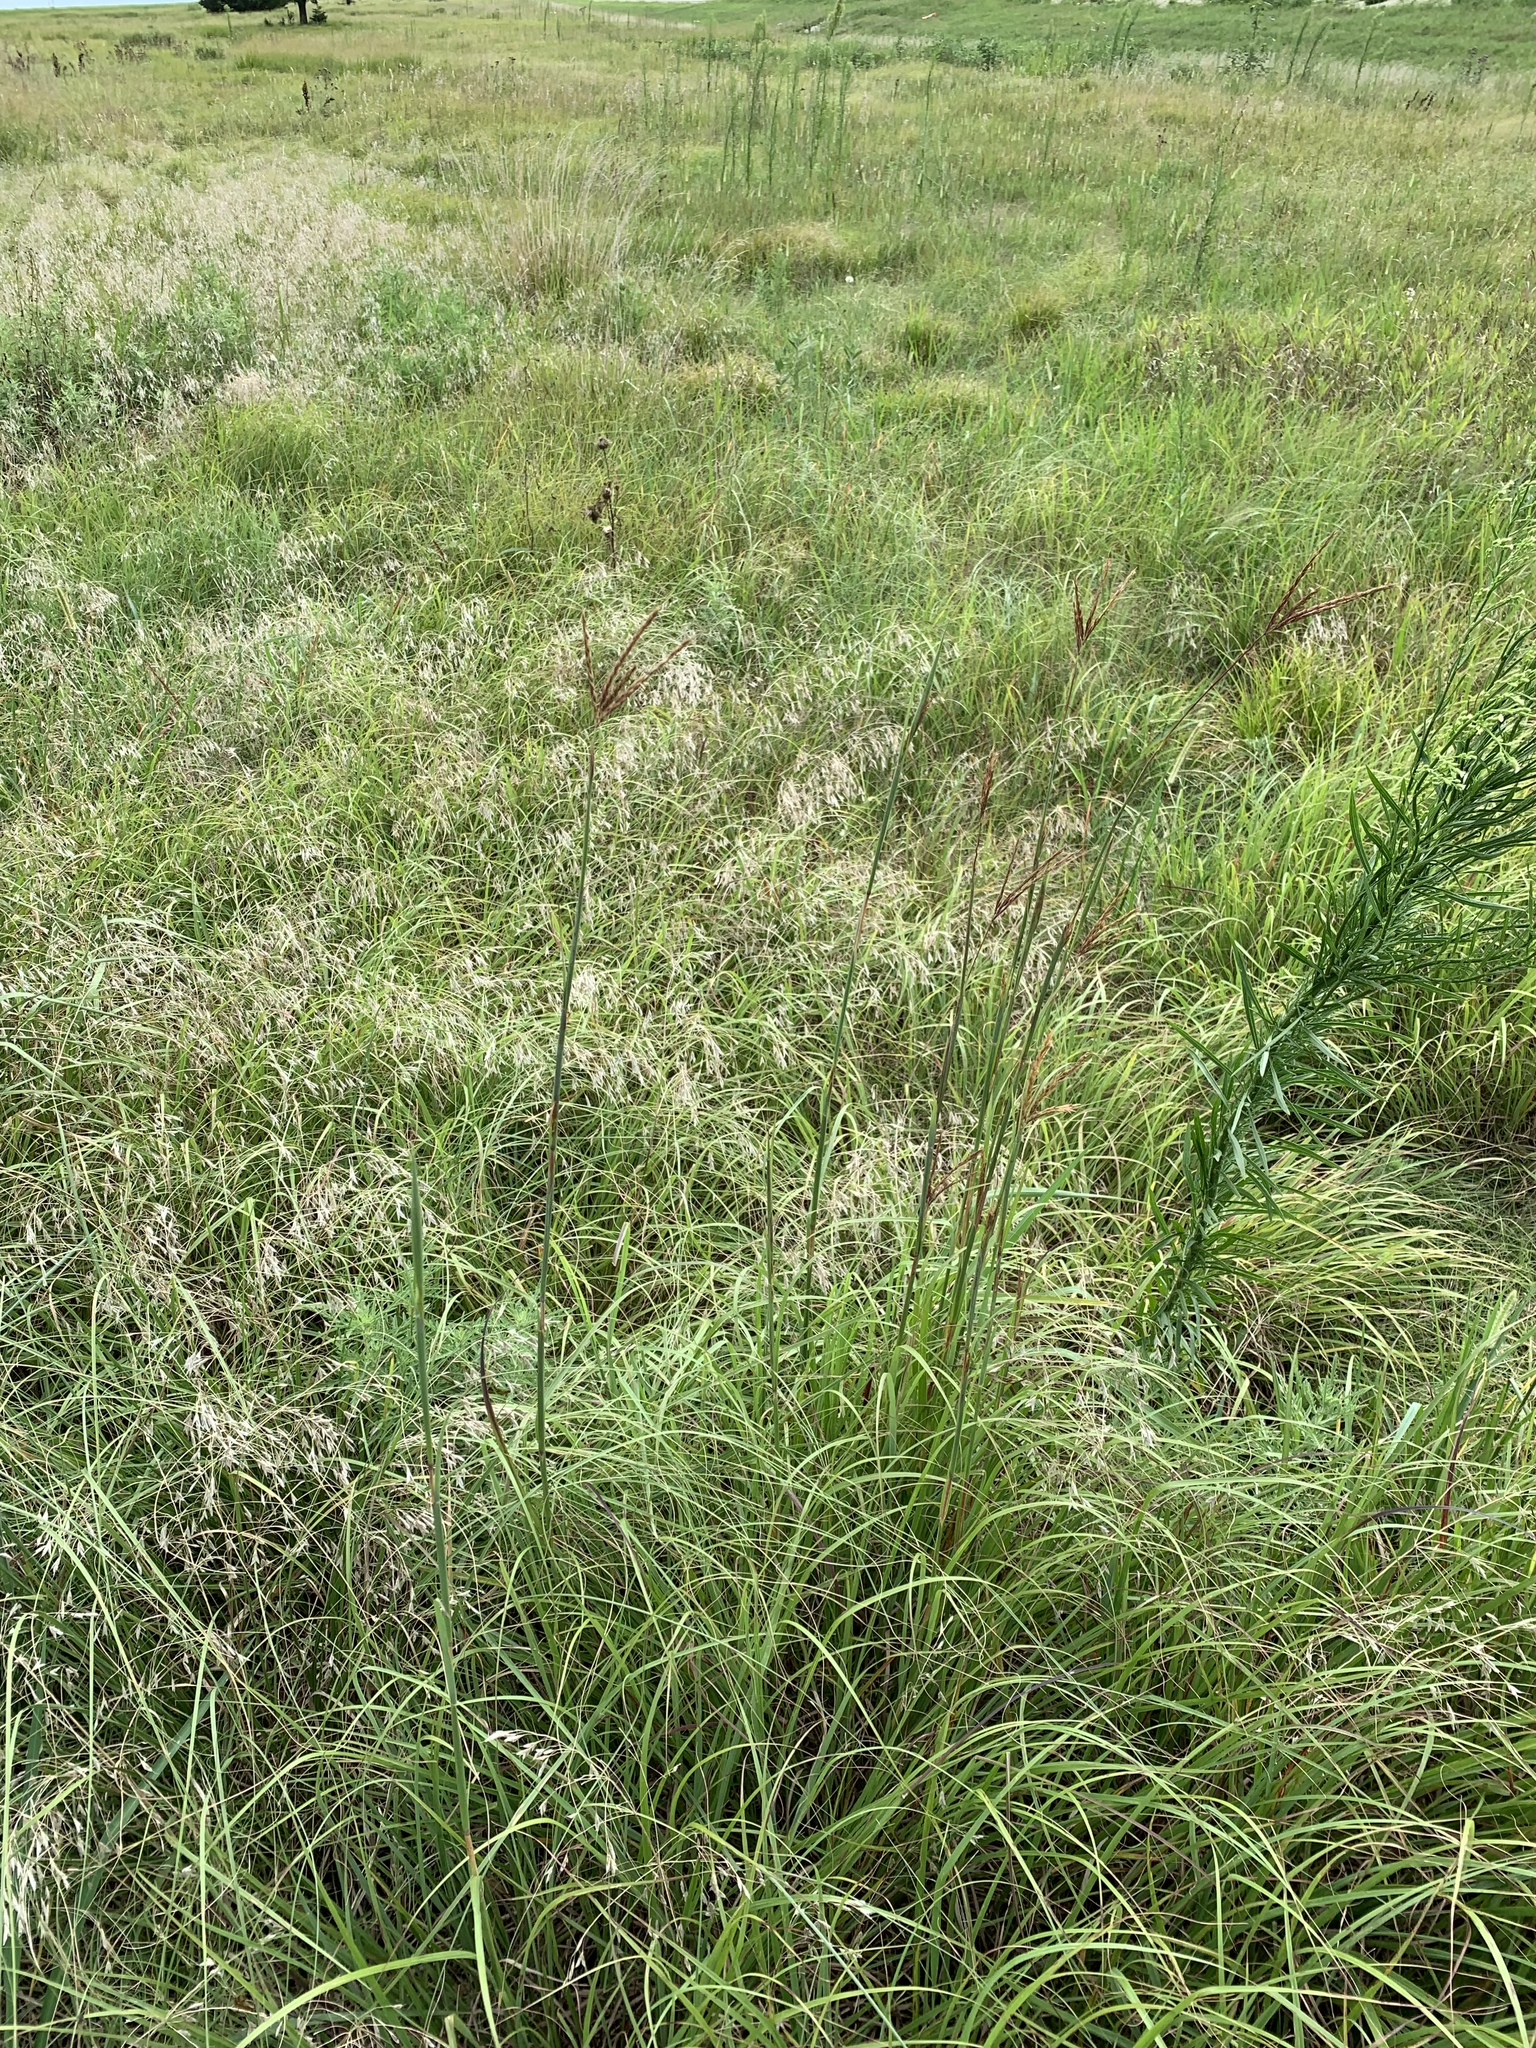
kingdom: Plantae
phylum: Tracheophyta
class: Liliopsida
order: Poales
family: Poaceae
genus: Andropogon
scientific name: Andropogon gerardi
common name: Big bluestem
